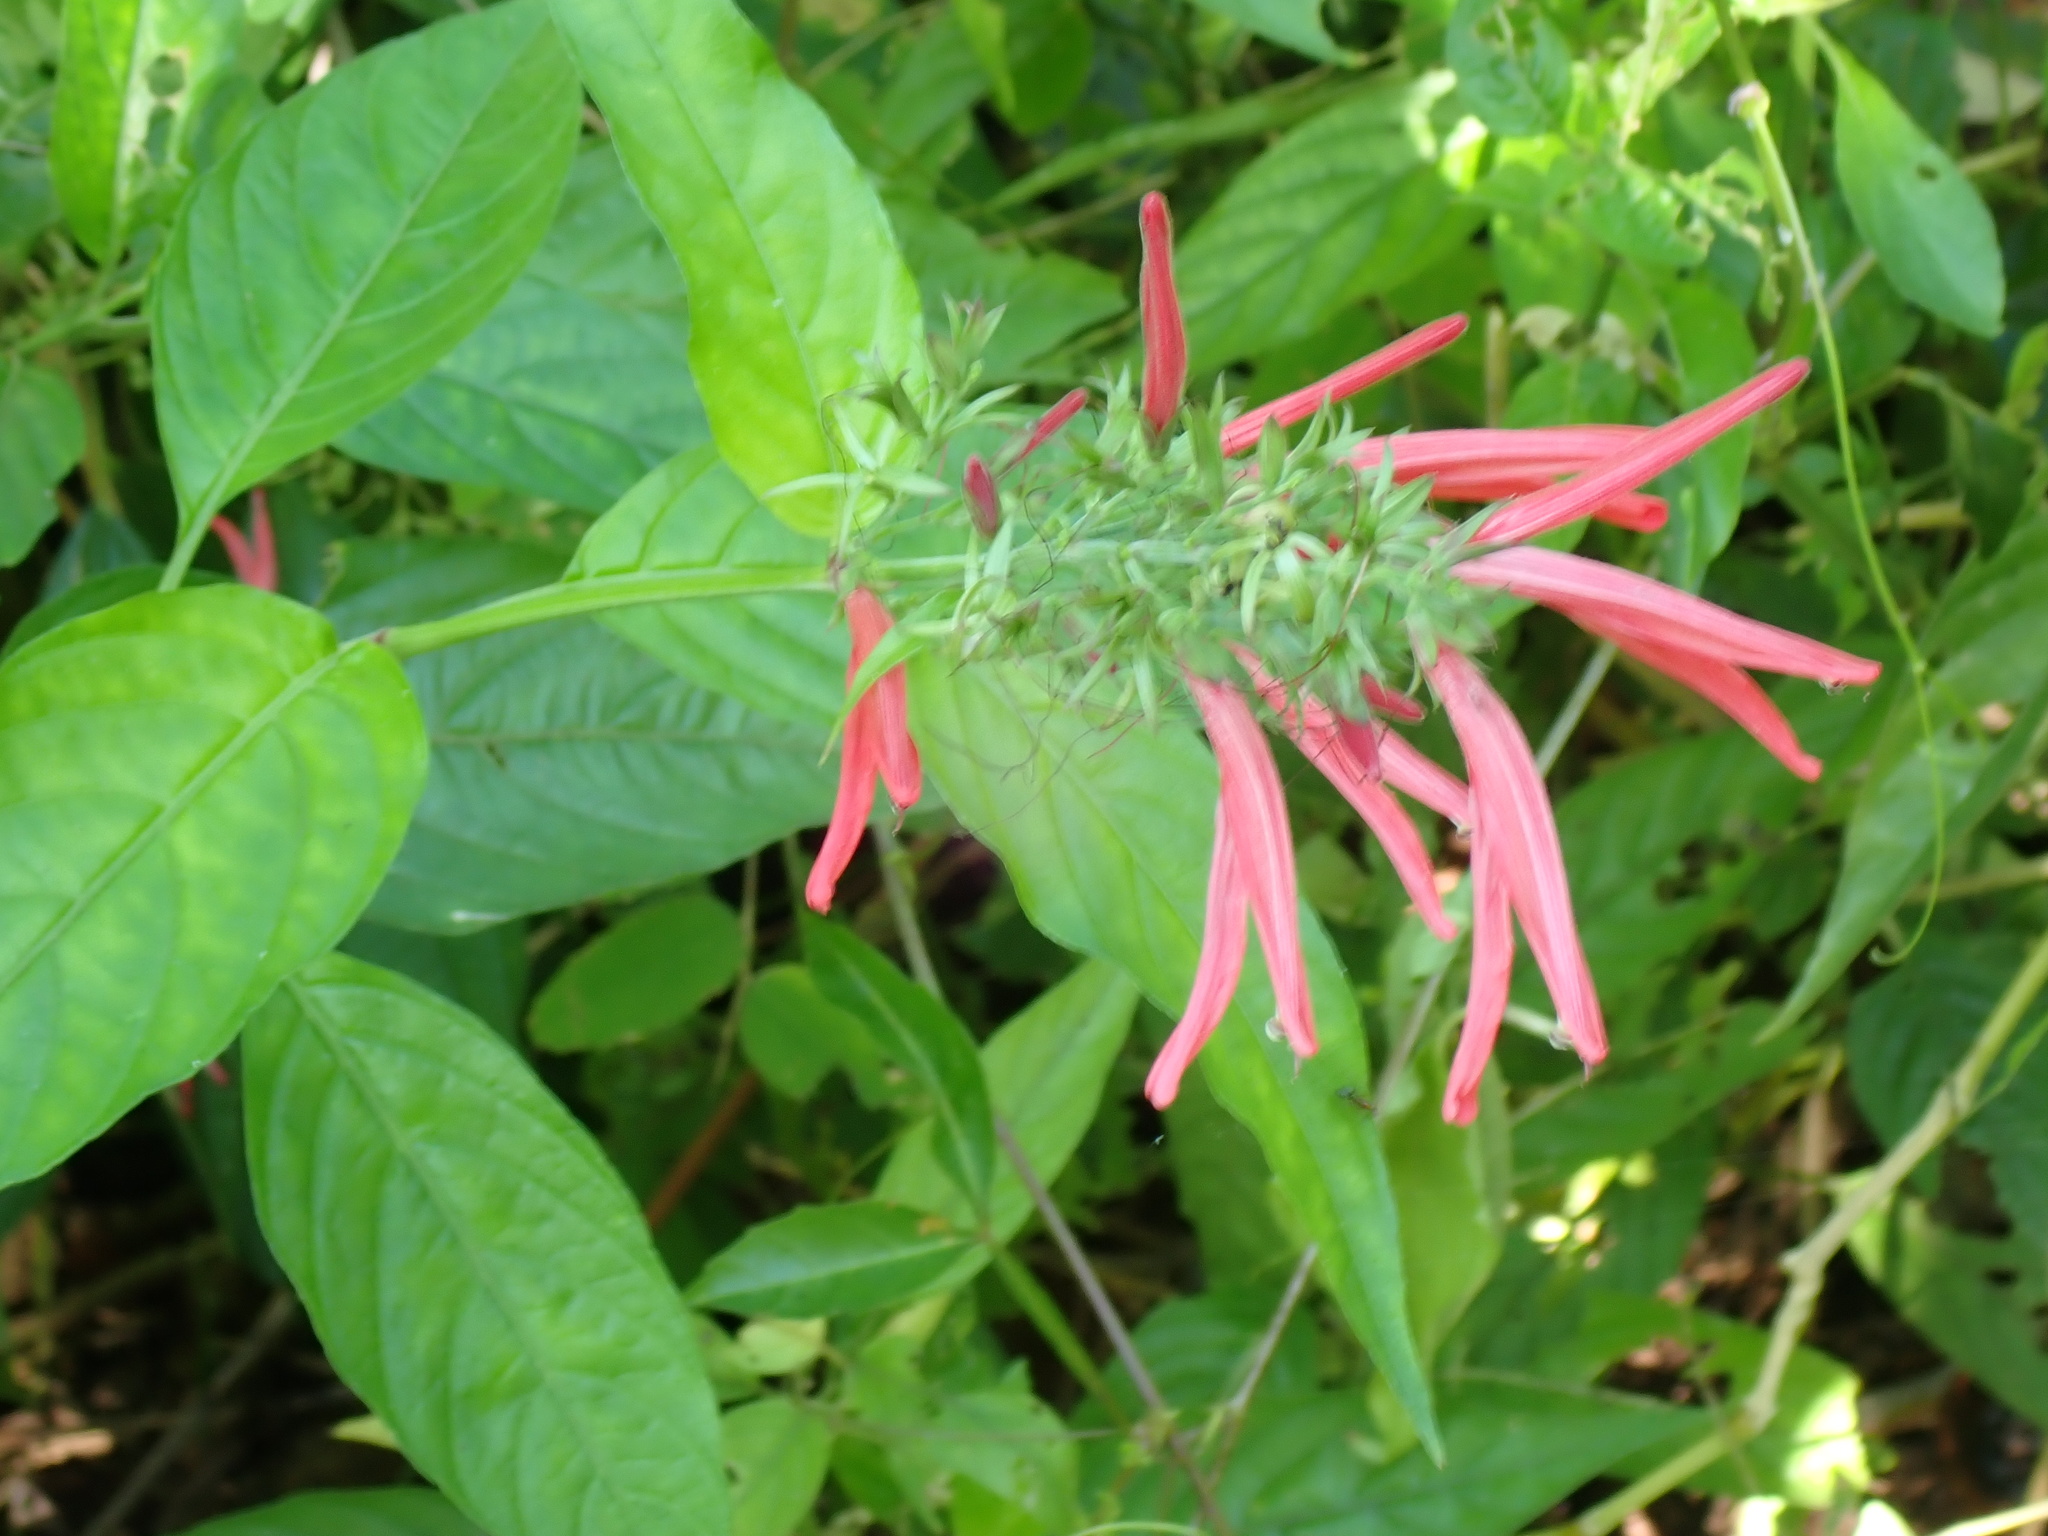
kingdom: Plantae
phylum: Tracheophyta
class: Magnoliopsida
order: Lamiales
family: Acanthaceae
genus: Dianthera
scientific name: Dianthera secunda
